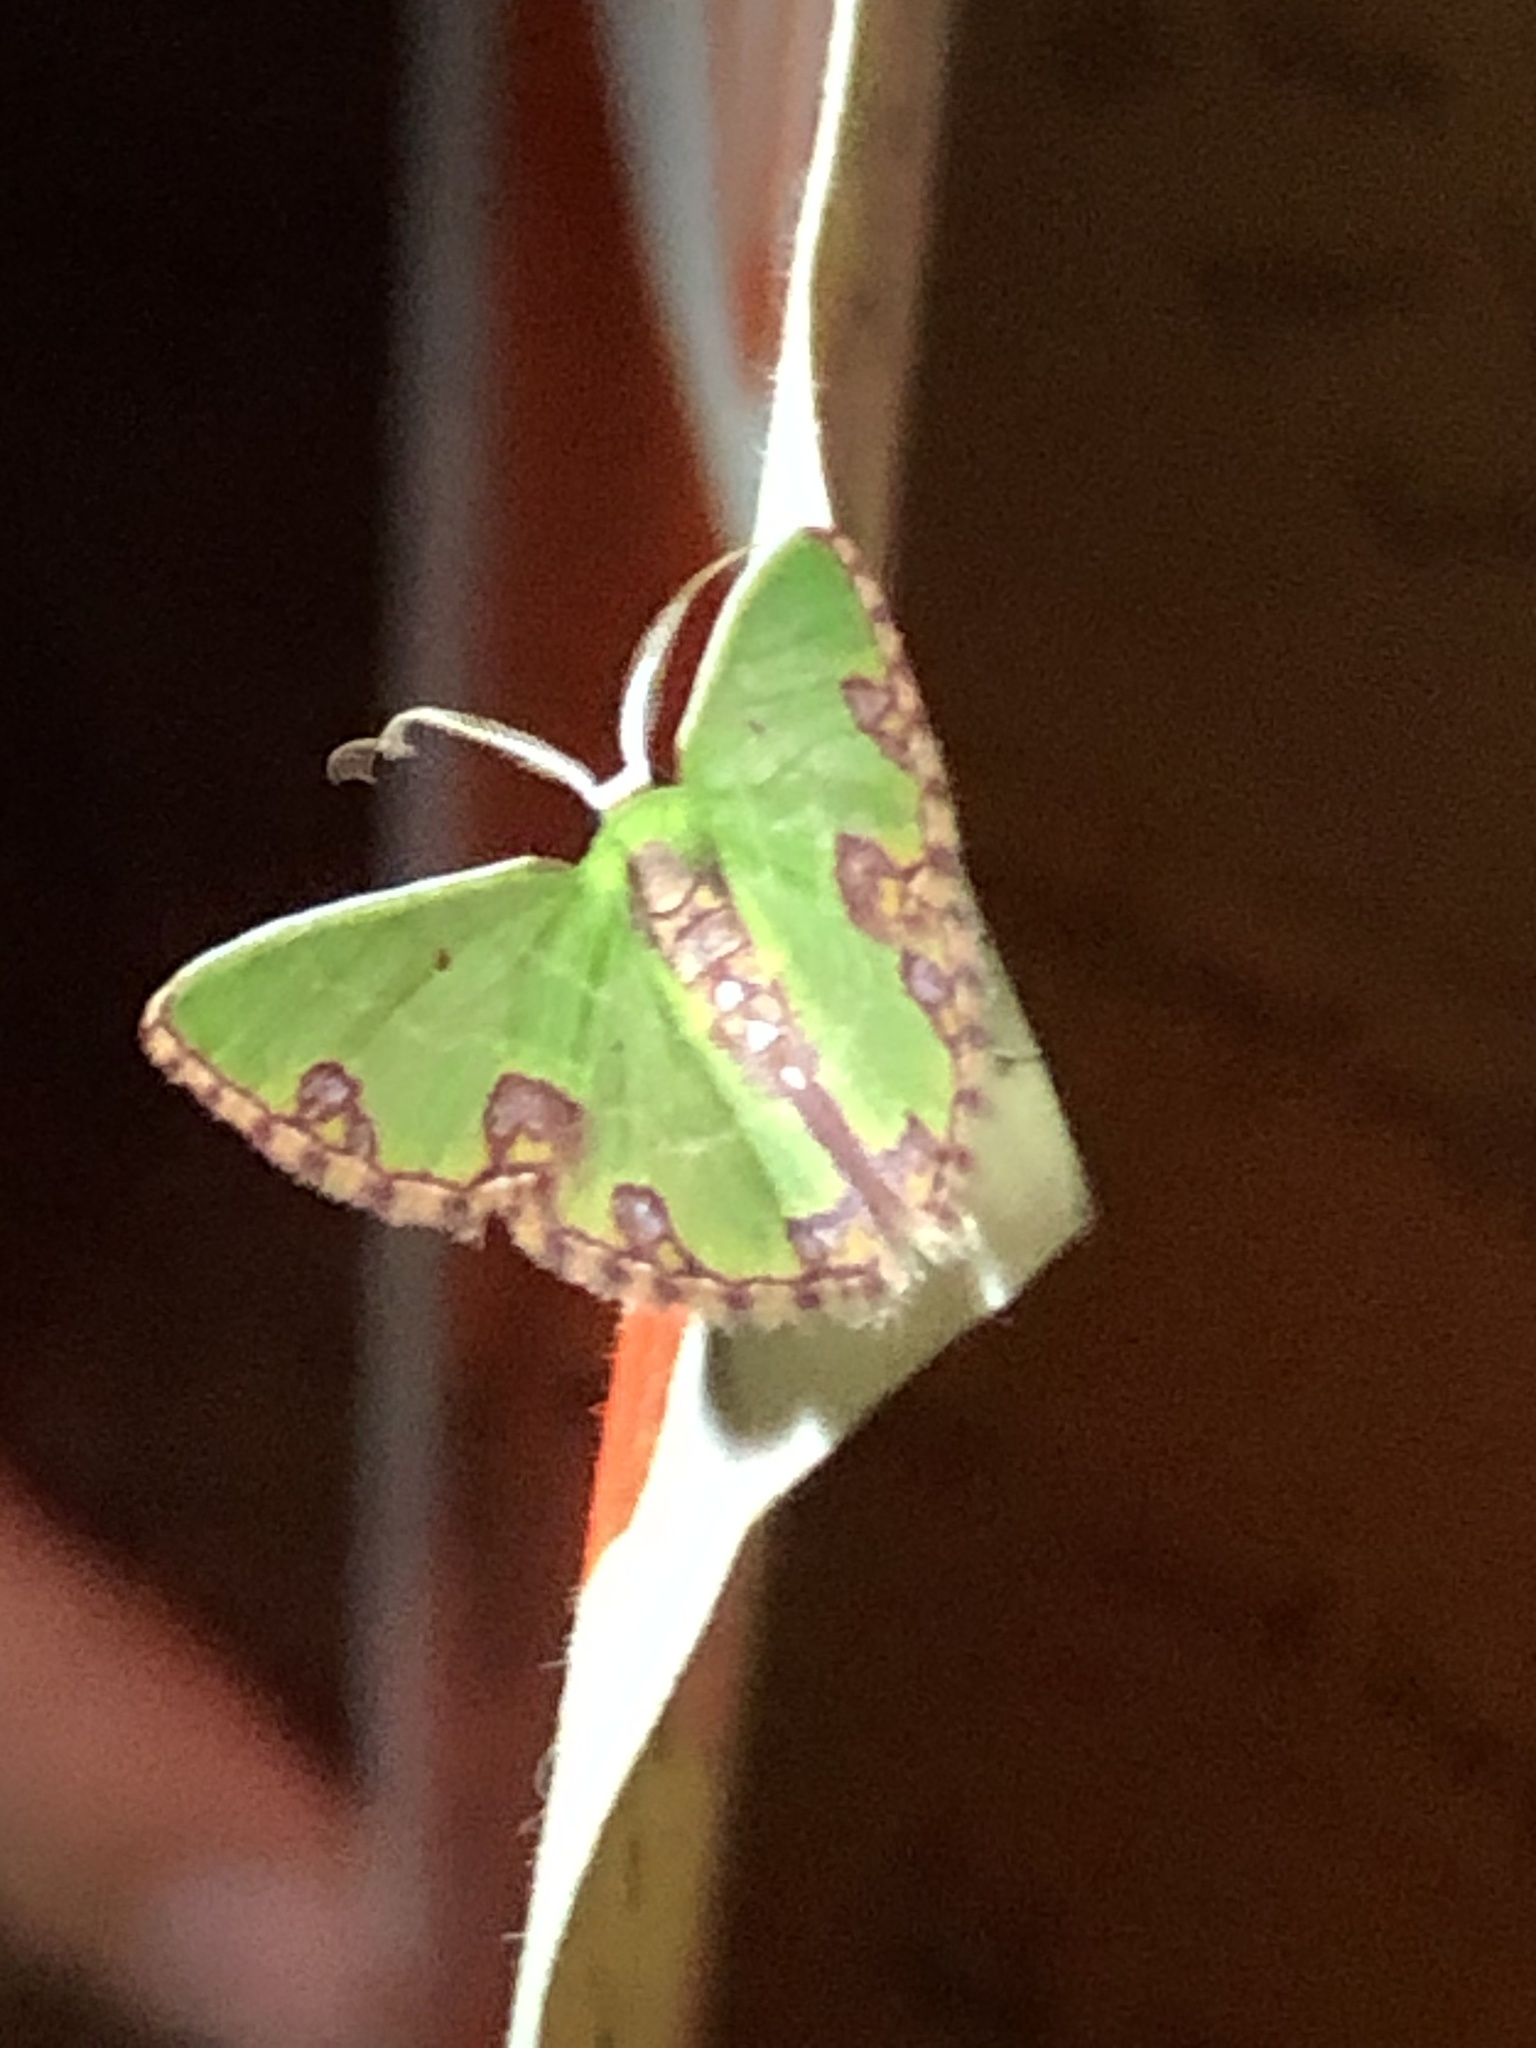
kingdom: Animalia
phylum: Arthropoda
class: Insecta
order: Lepidoptera
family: Geometridae
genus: Synchlora
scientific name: Synchlora gerularia
